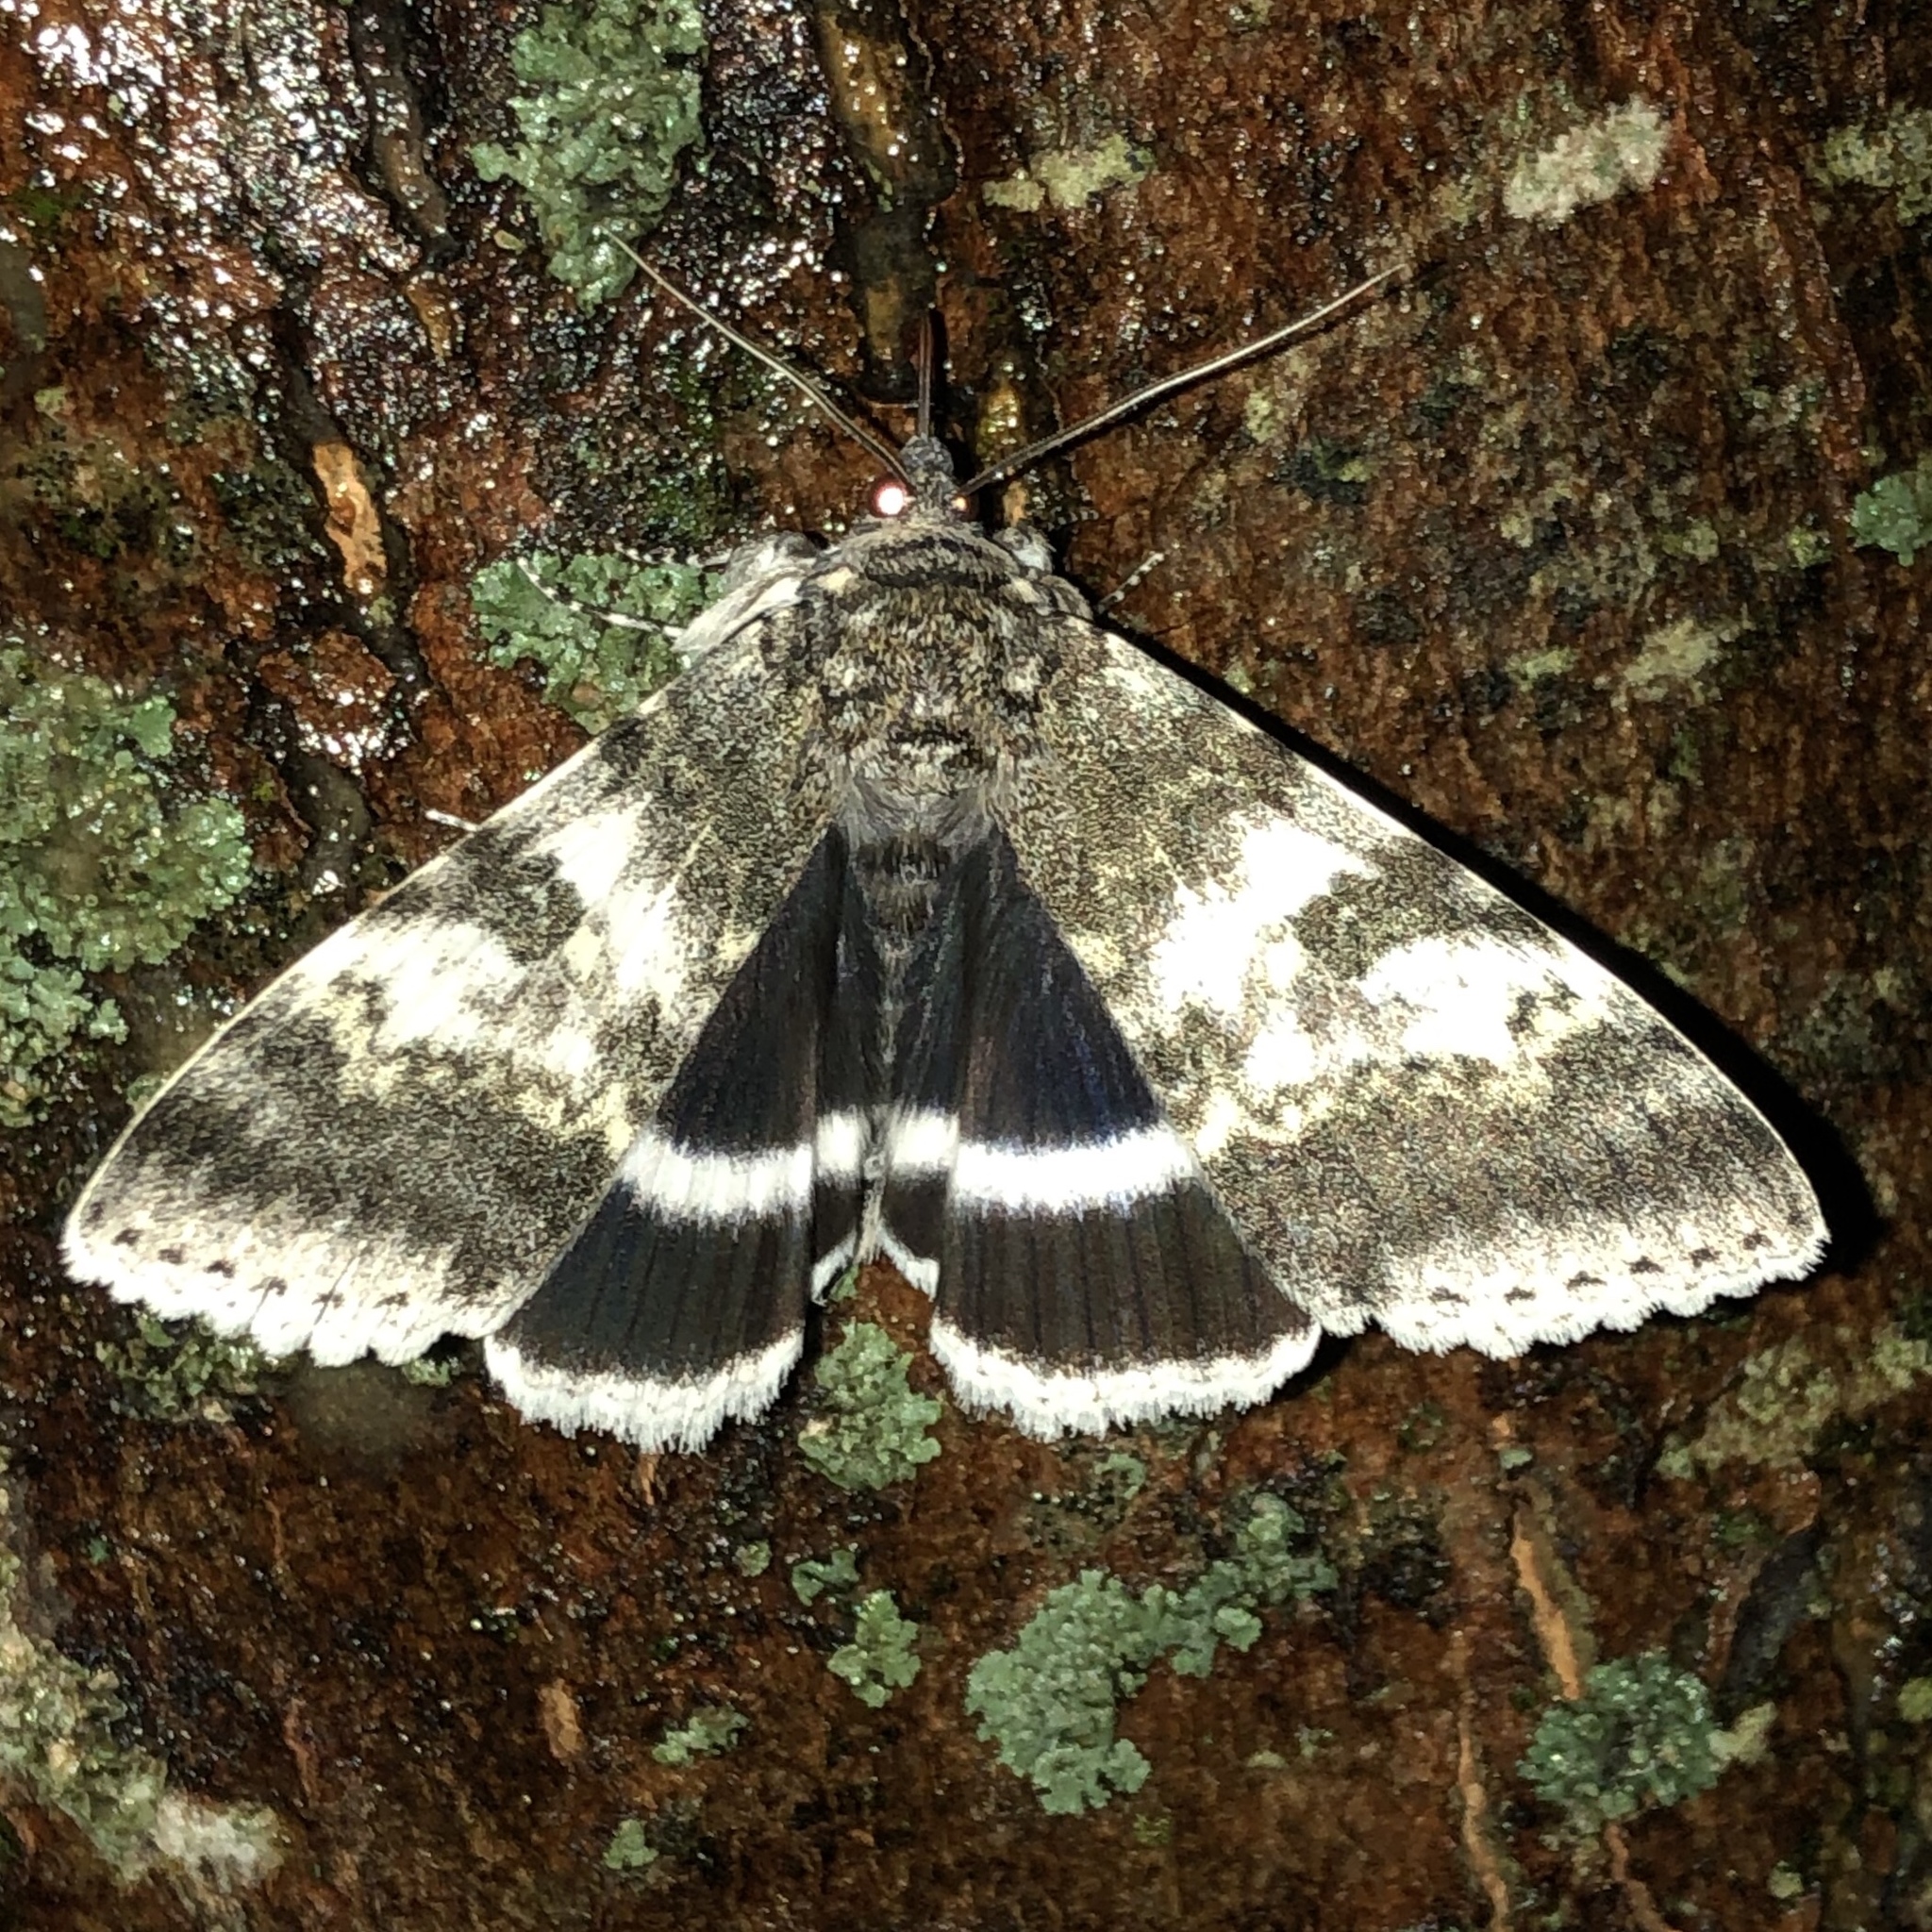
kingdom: Animalia
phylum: Arthropoda
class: Insecta
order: Lepidoptera
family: Erebidae
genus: Catocala
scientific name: Catocala relicta
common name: White underwing
